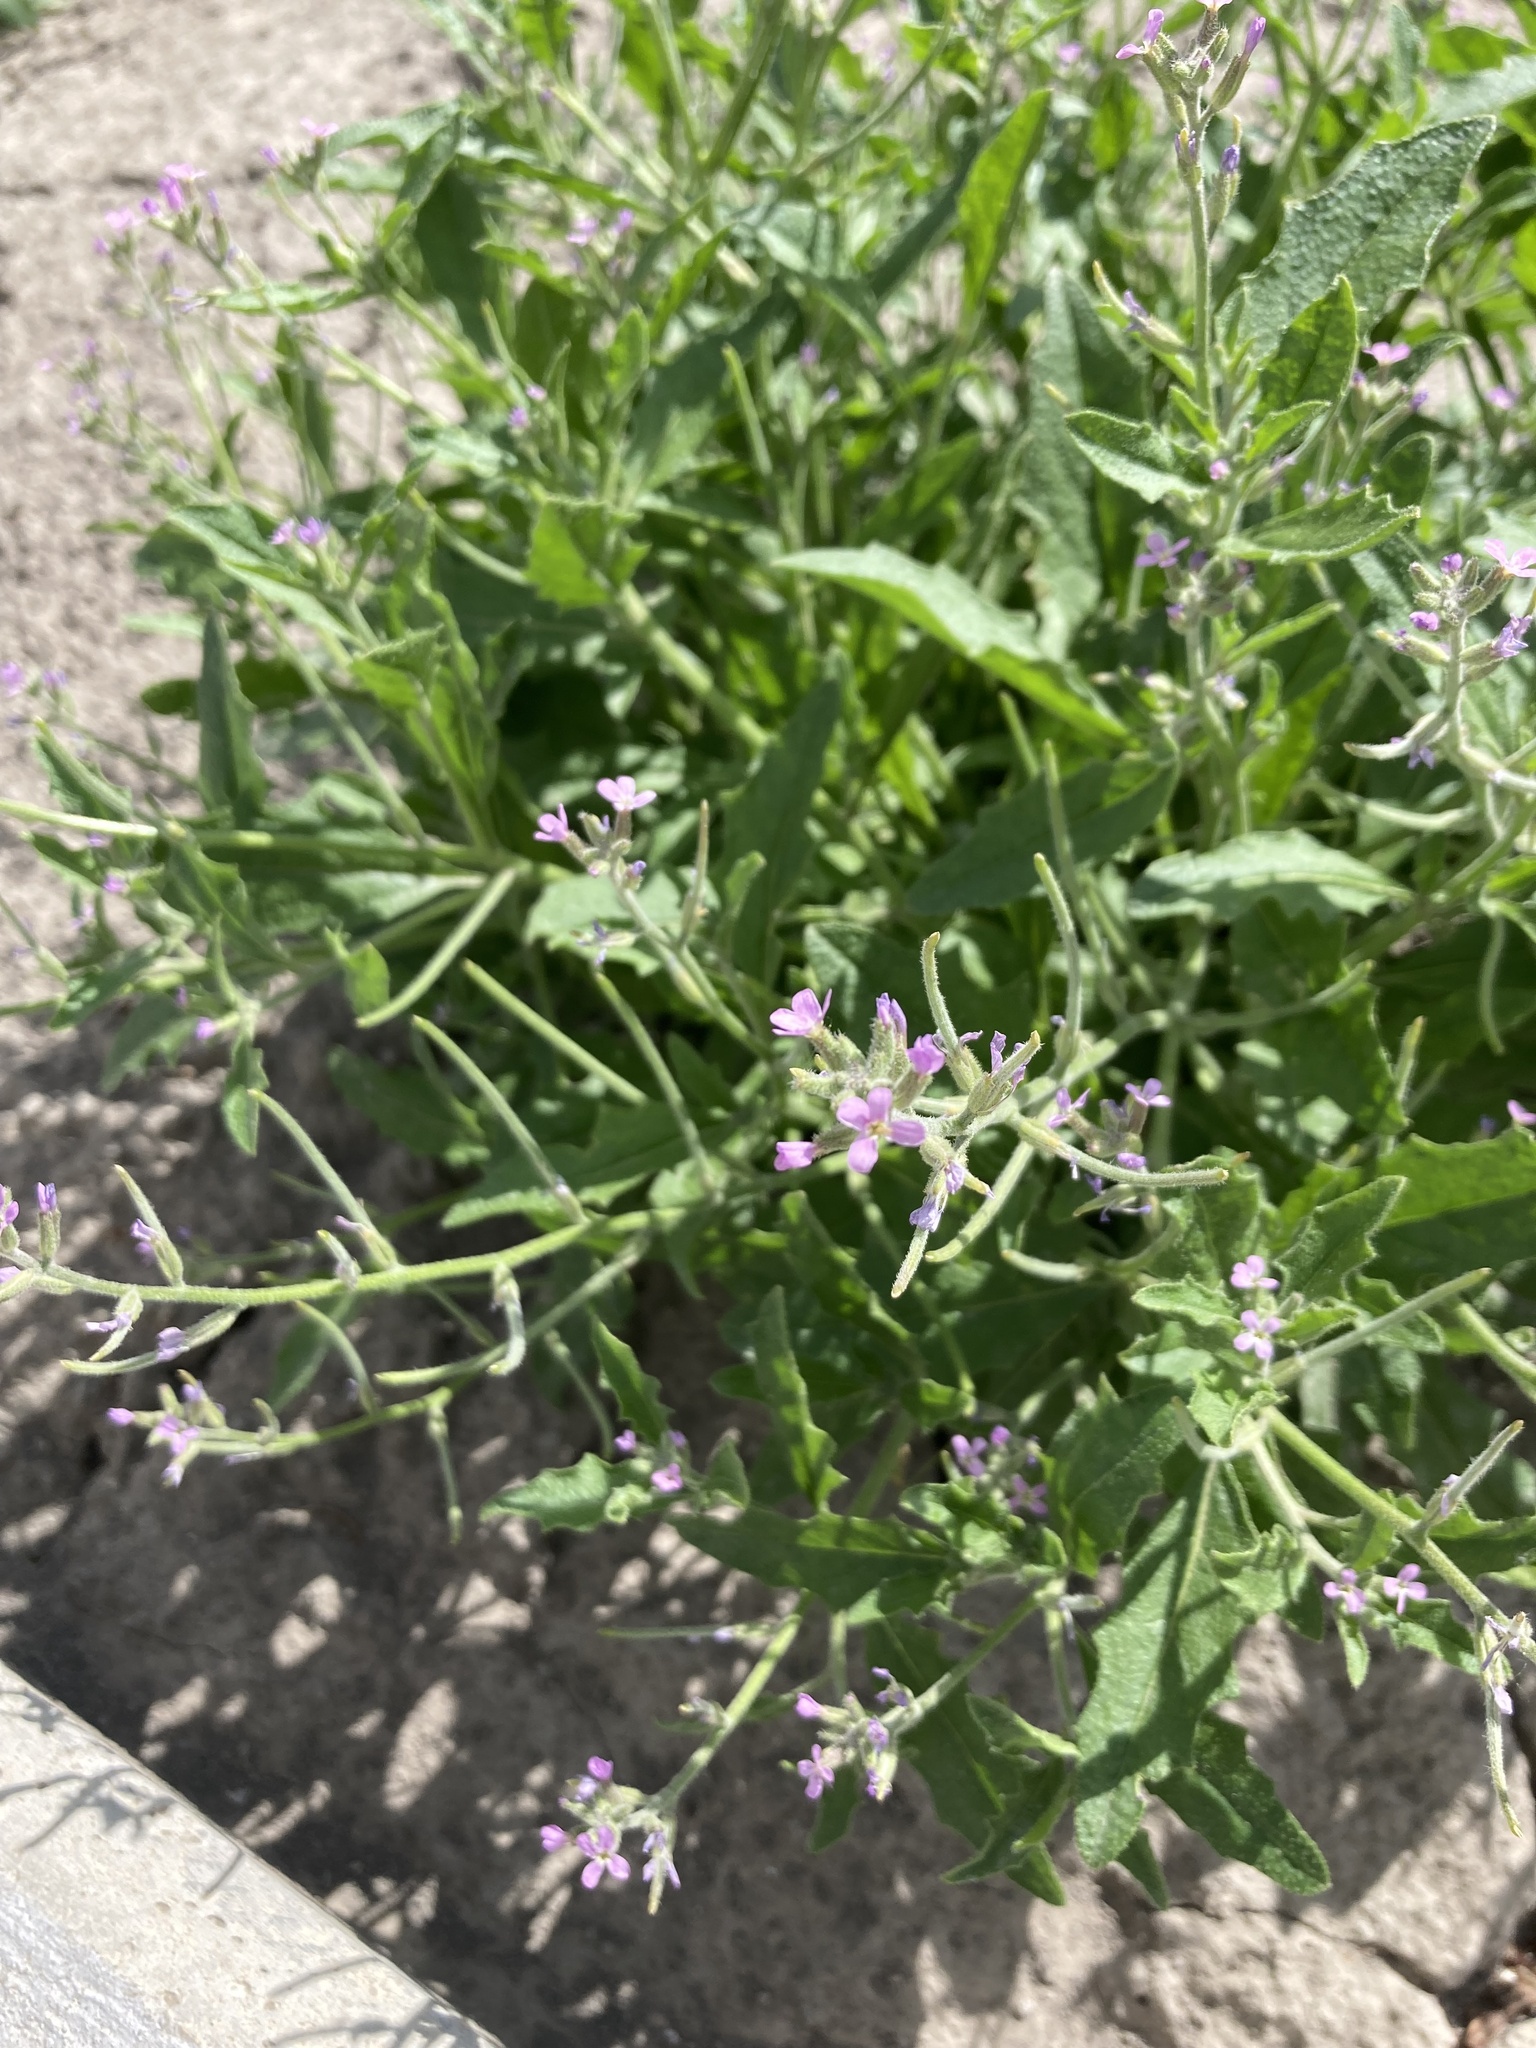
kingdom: Plantae
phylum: Tracheophyta
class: Magnoliopsida
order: Brassicales
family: Brassicaceae
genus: Strigosella
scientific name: Strigosella africana
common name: African mustard
